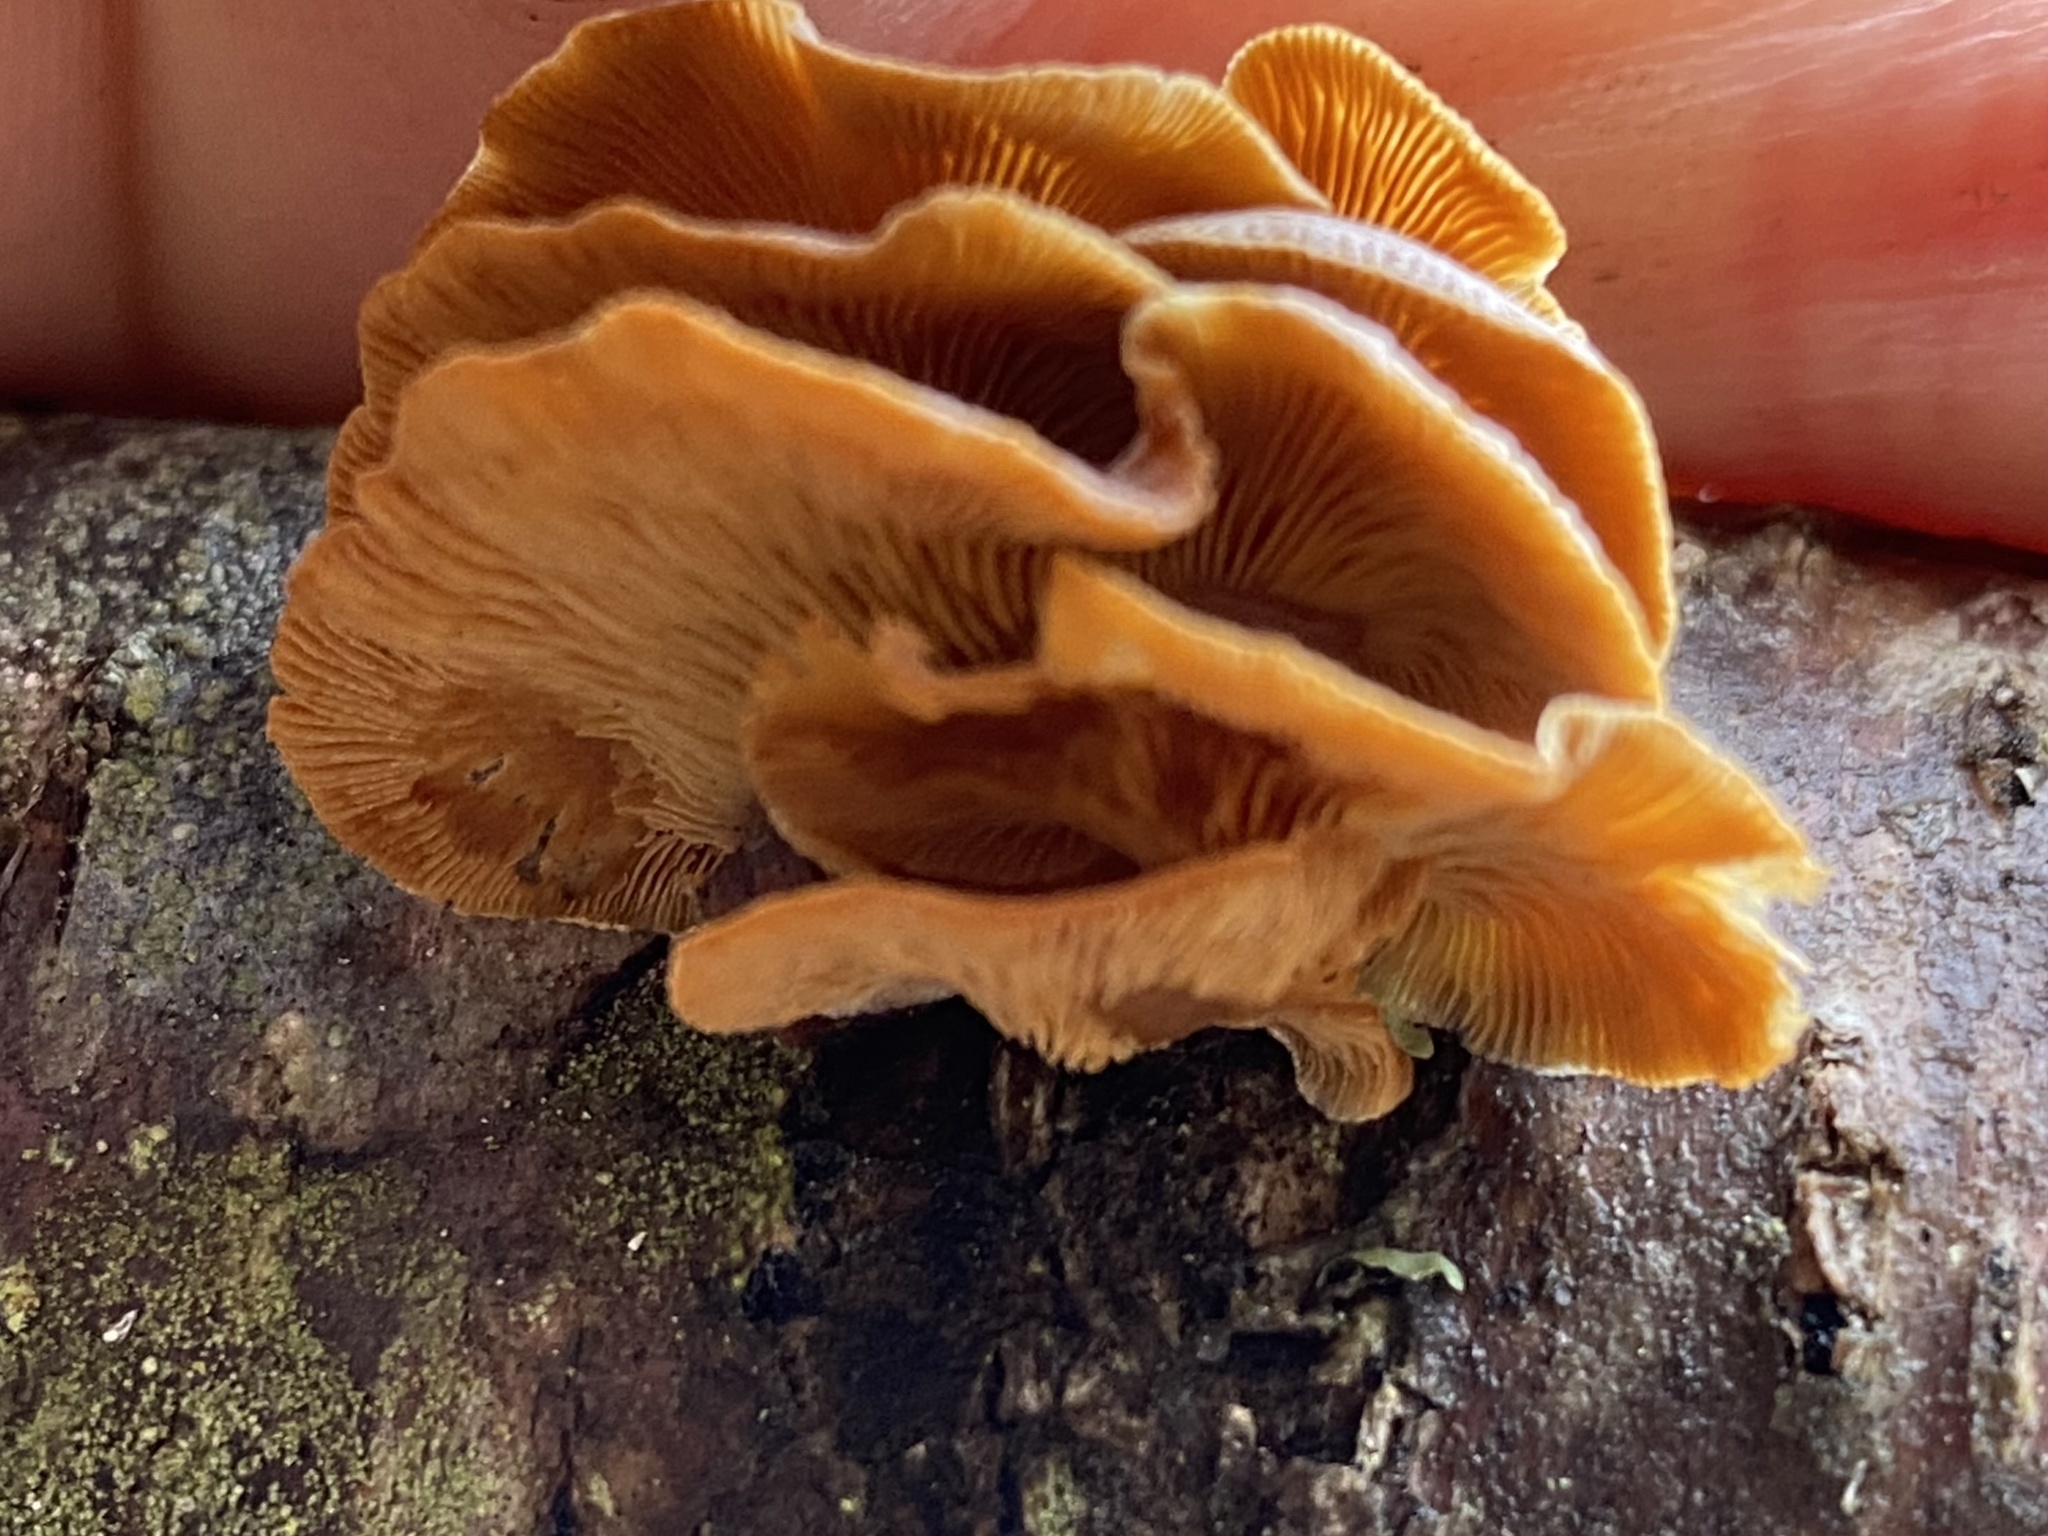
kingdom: Fungi
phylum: Basidiomycota
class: Agaricomycetes
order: Agaricales
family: Mycenaceae
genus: Panellus
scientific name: Panellus stipticus
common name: Bitter oysterling
